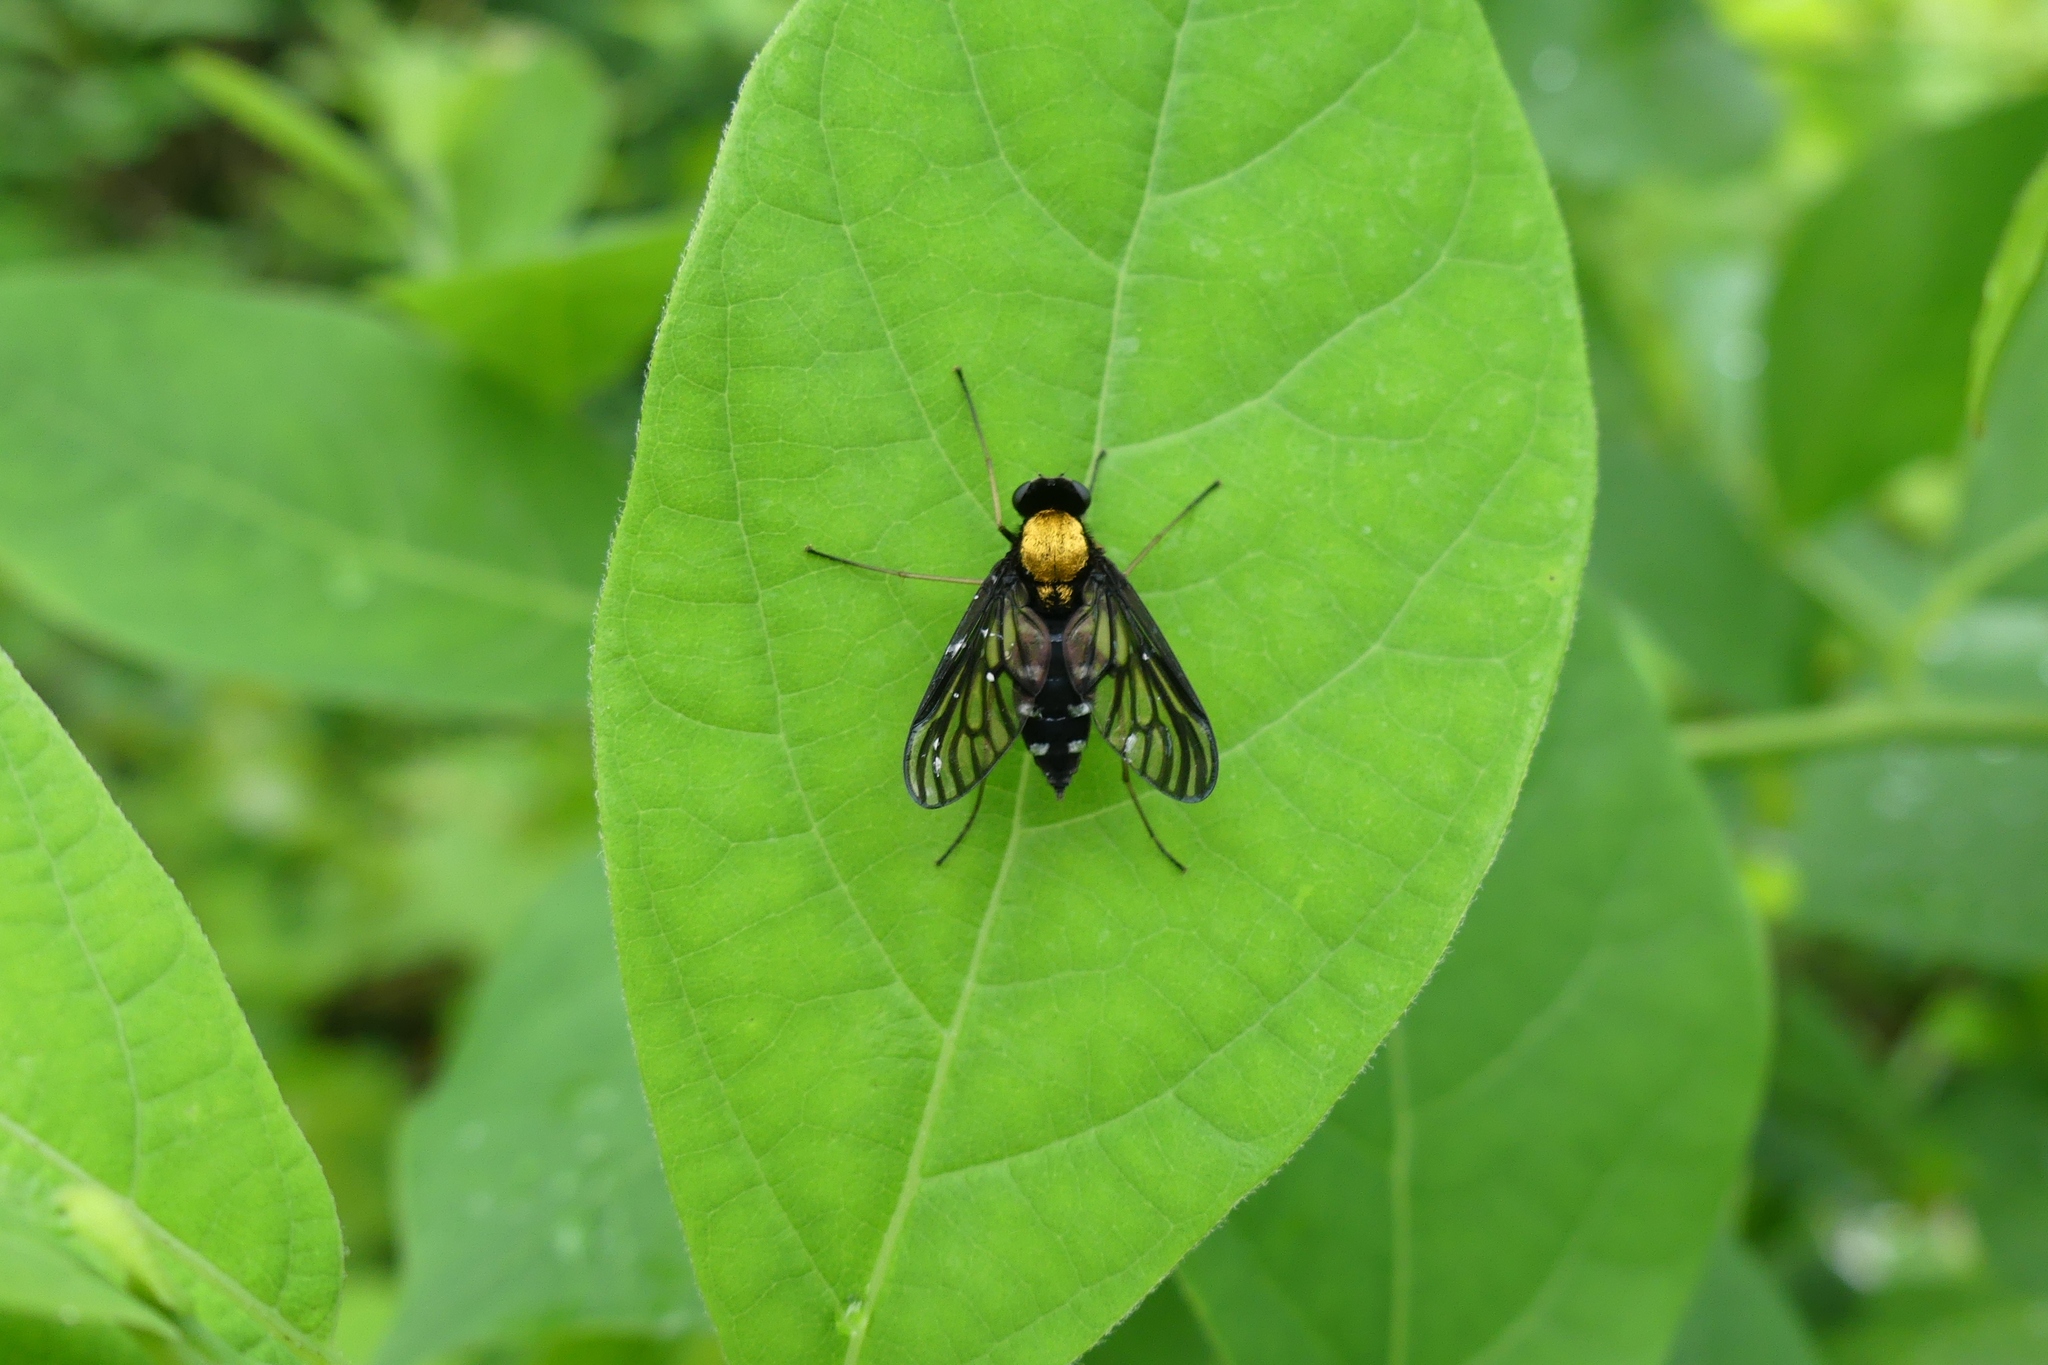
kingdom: Animalia
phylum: Arthropoda
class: Insecta
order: Diptera
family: Rhagionidae
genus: Chrysopilus
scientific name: Chrysopilus thoracicus
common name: Golden-backed snipe fly
